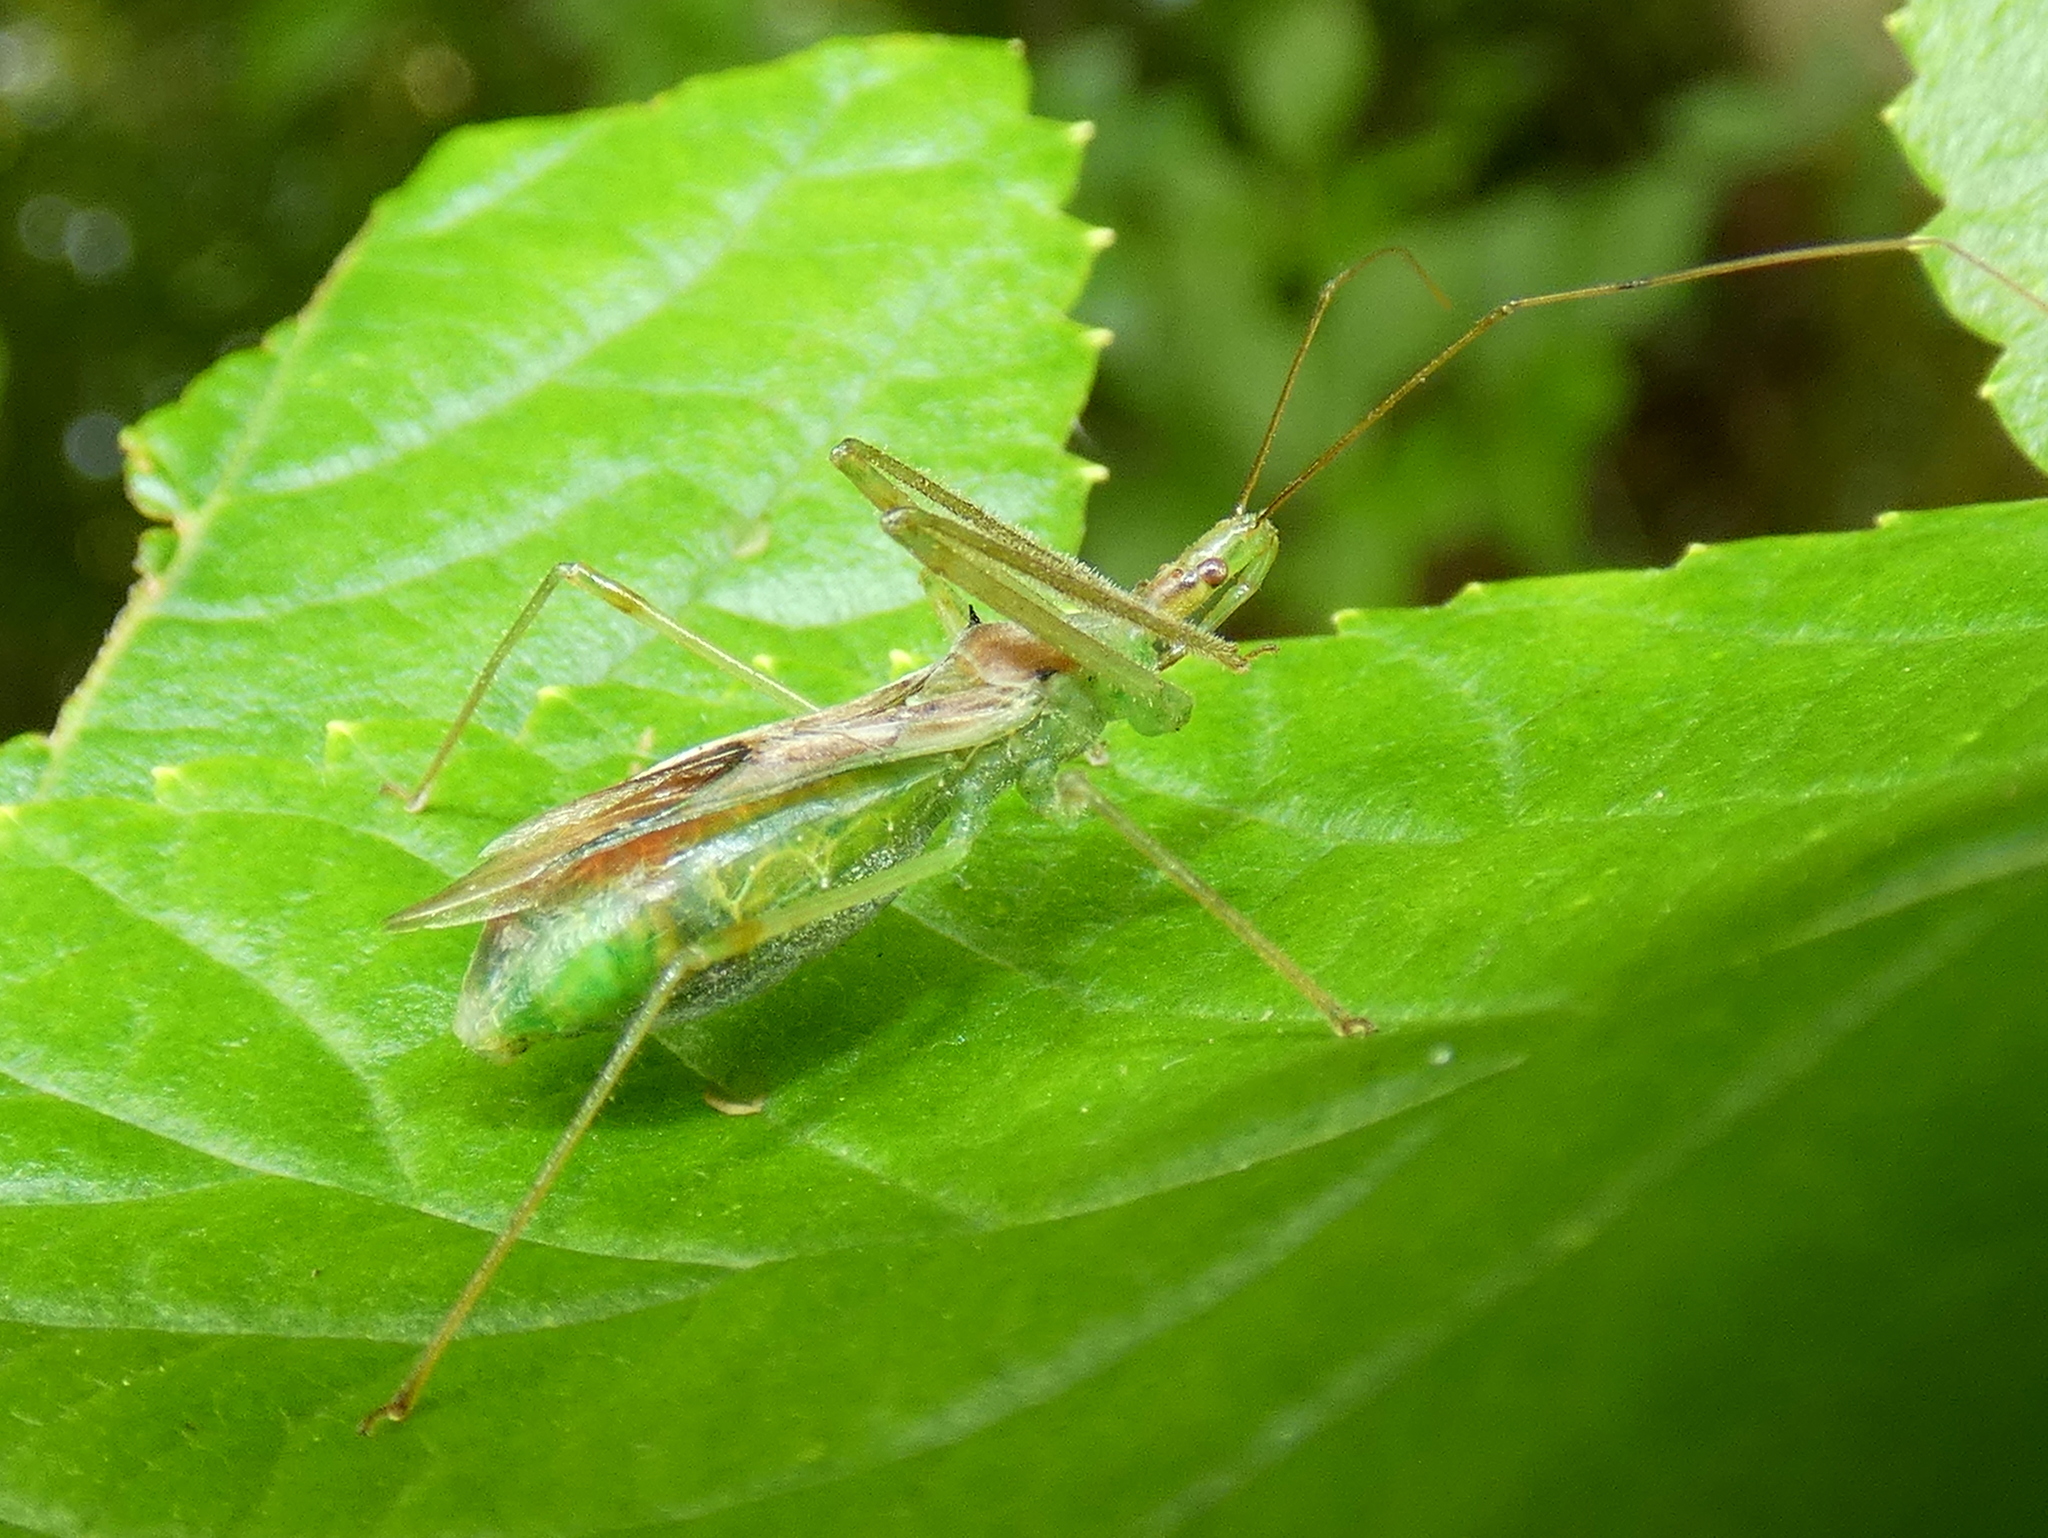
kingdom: Animalia
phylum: Arthropoda
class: Insecta
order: Hemiptera
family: Reduviidae
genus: Zelus
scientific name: Zelus luridus
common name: Pale green assassin bug
